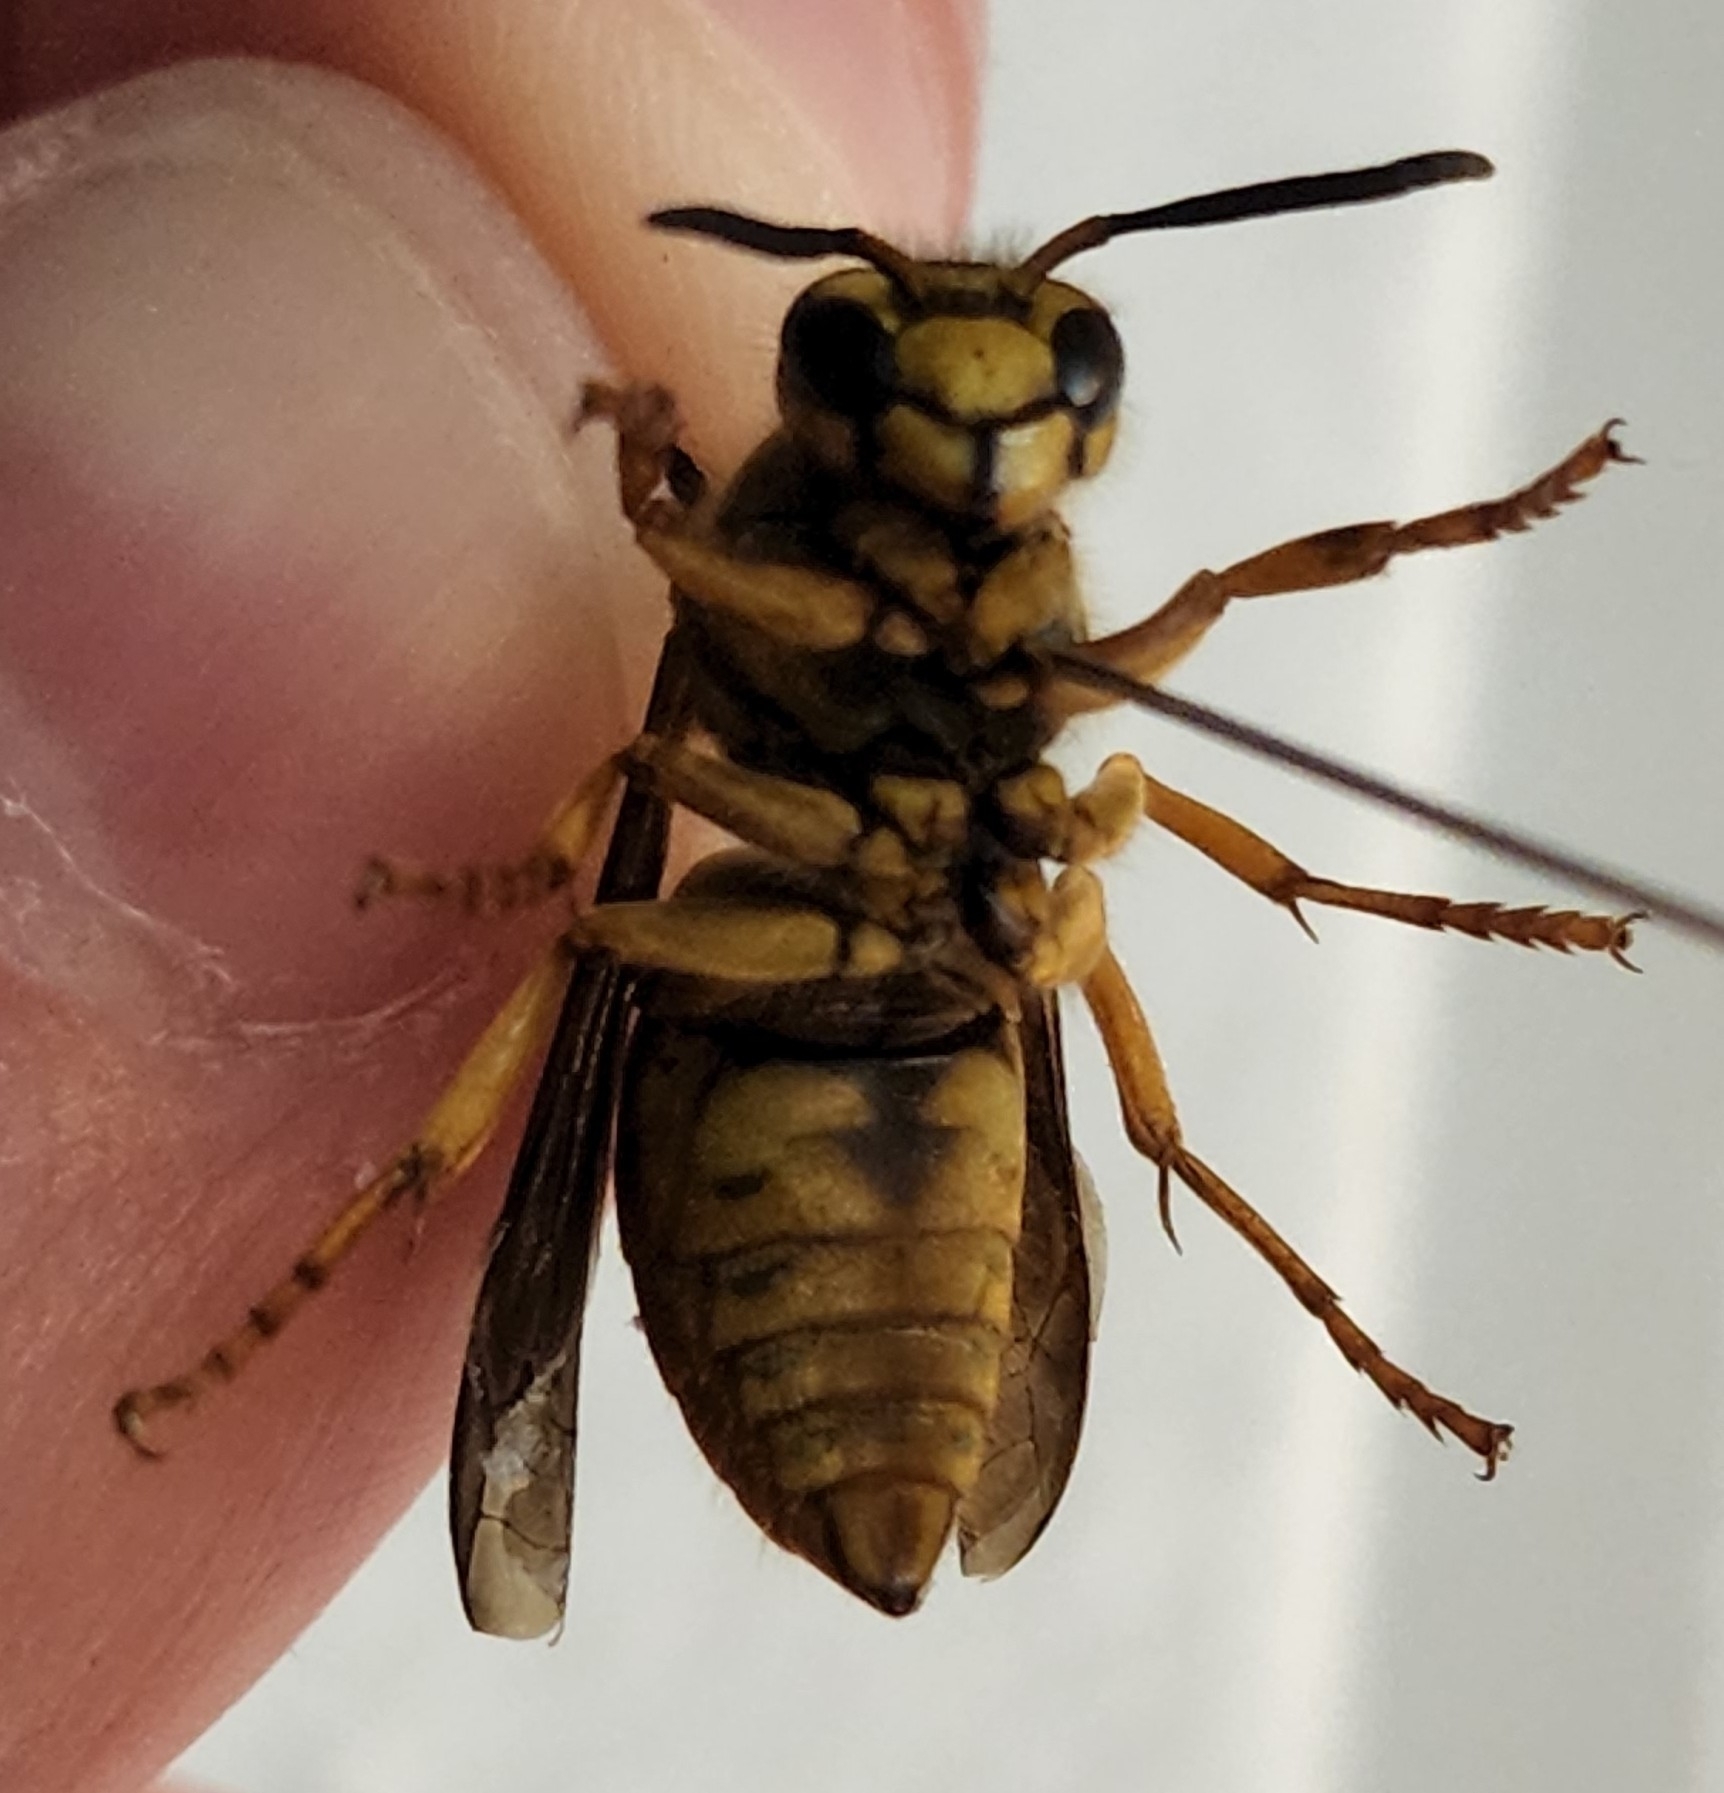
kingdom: Animalia
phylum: Arthropoda
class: Insecta
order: Hymenoptera
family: Vespidae
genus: Vespula
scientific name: Vespula squamosa
